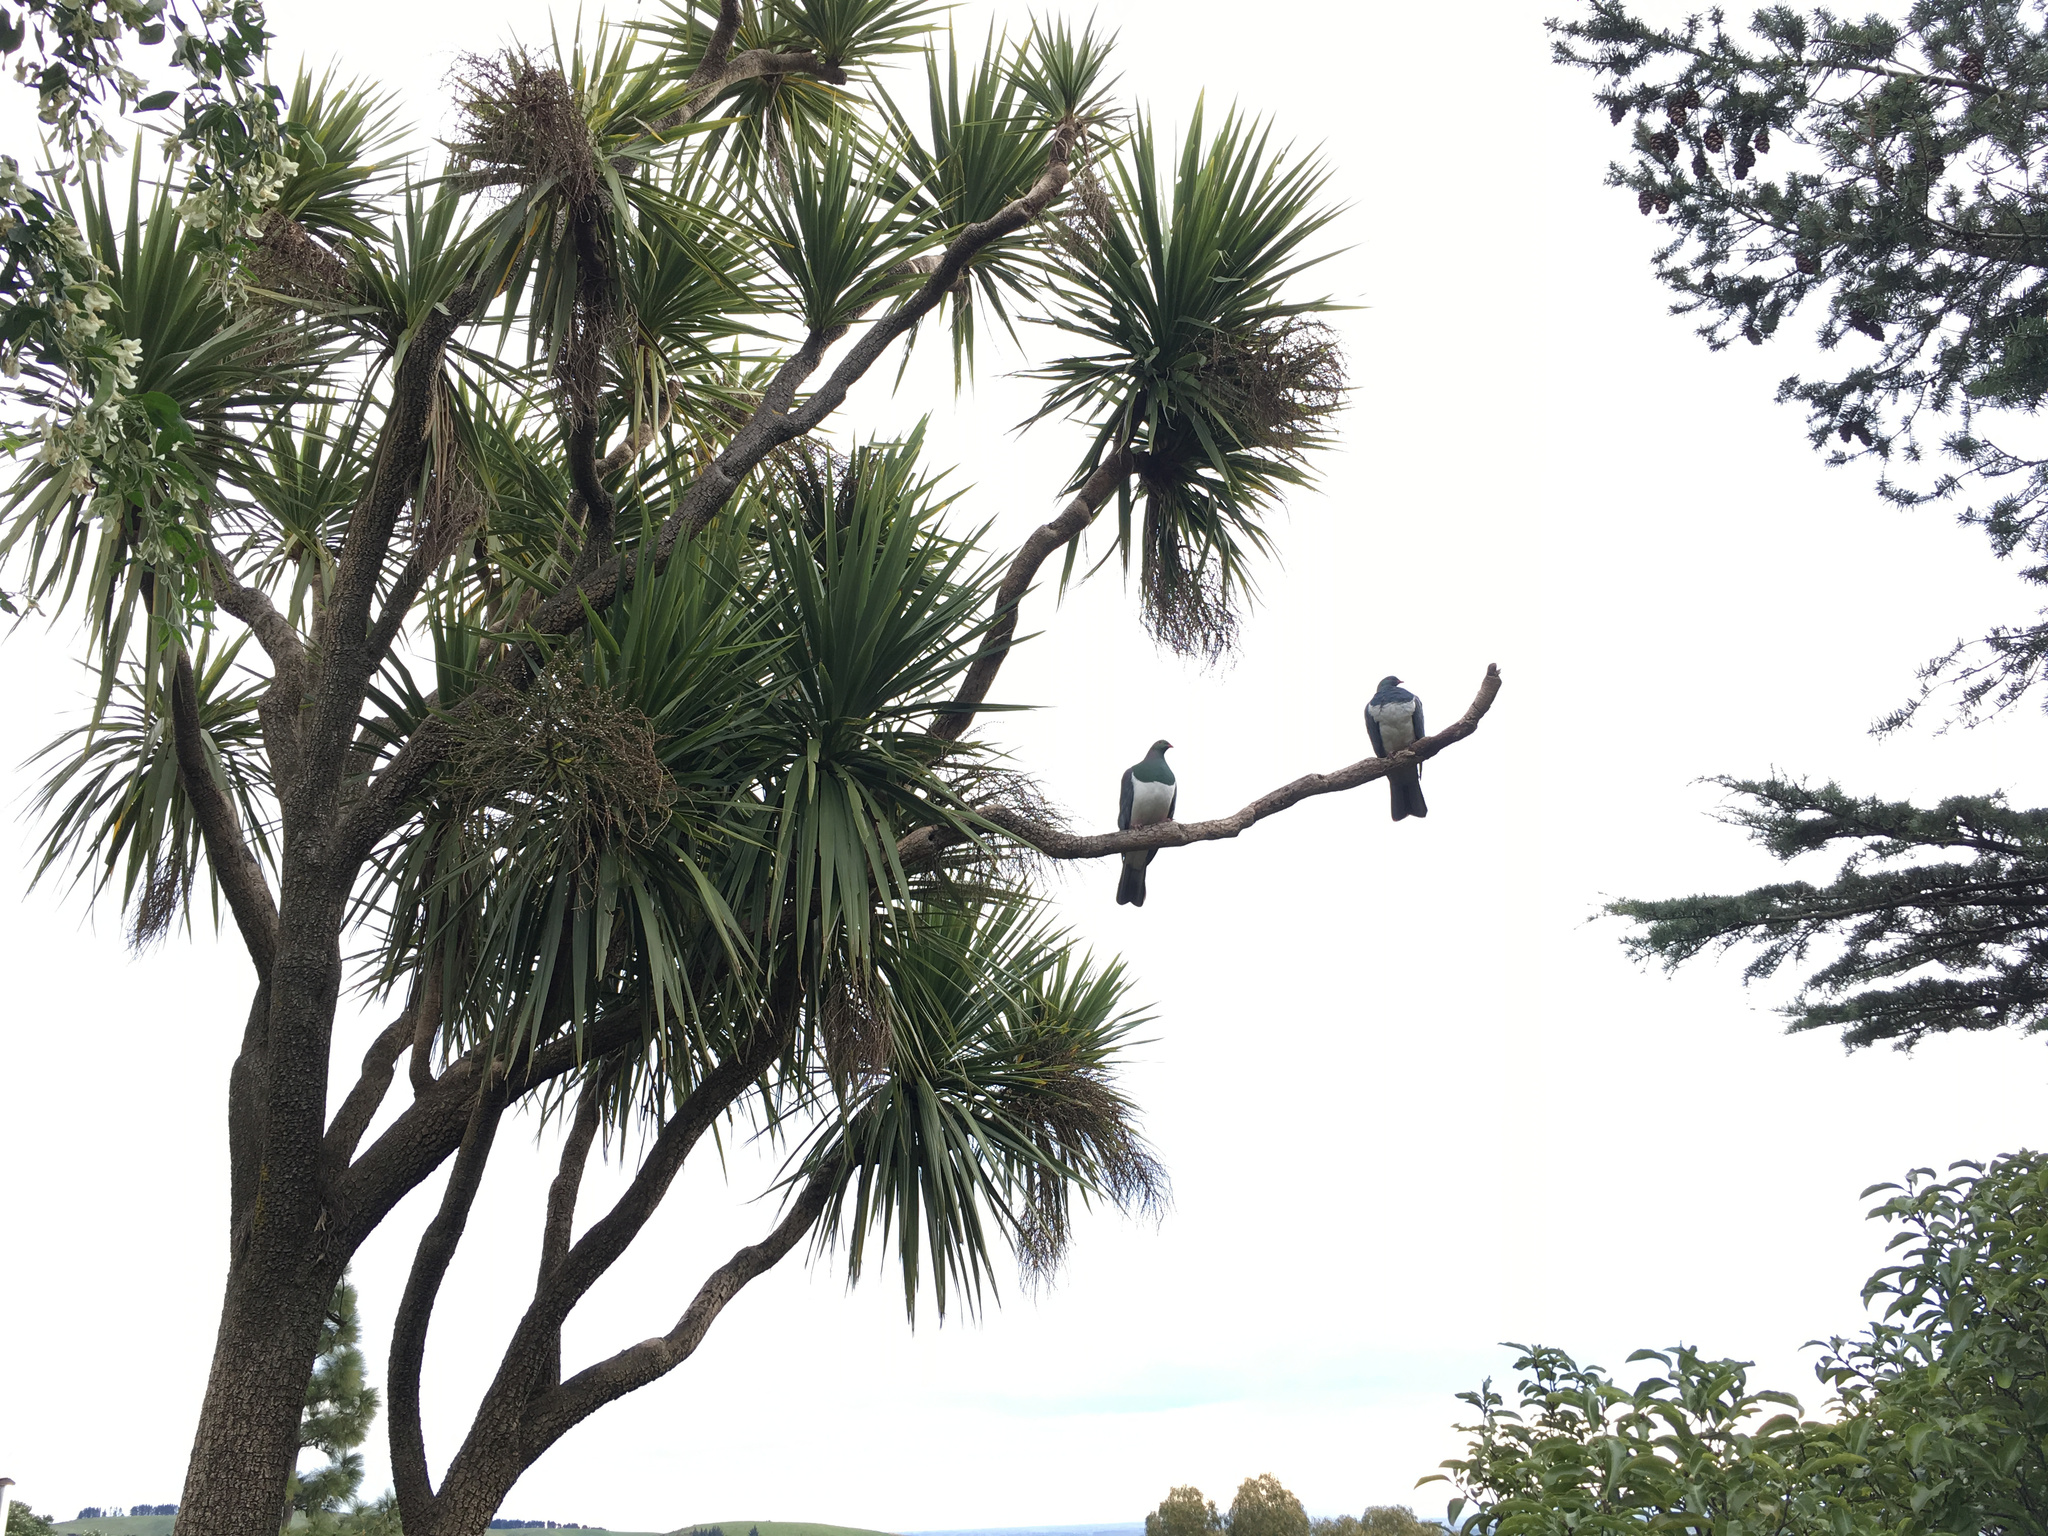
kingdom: Animalia
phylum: Chordata
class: Aves
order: Columbiformes
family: Columbidae
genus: Hemiphaga
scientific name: Hemiphaga novaeseelandiae
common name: New zealand pigeon
